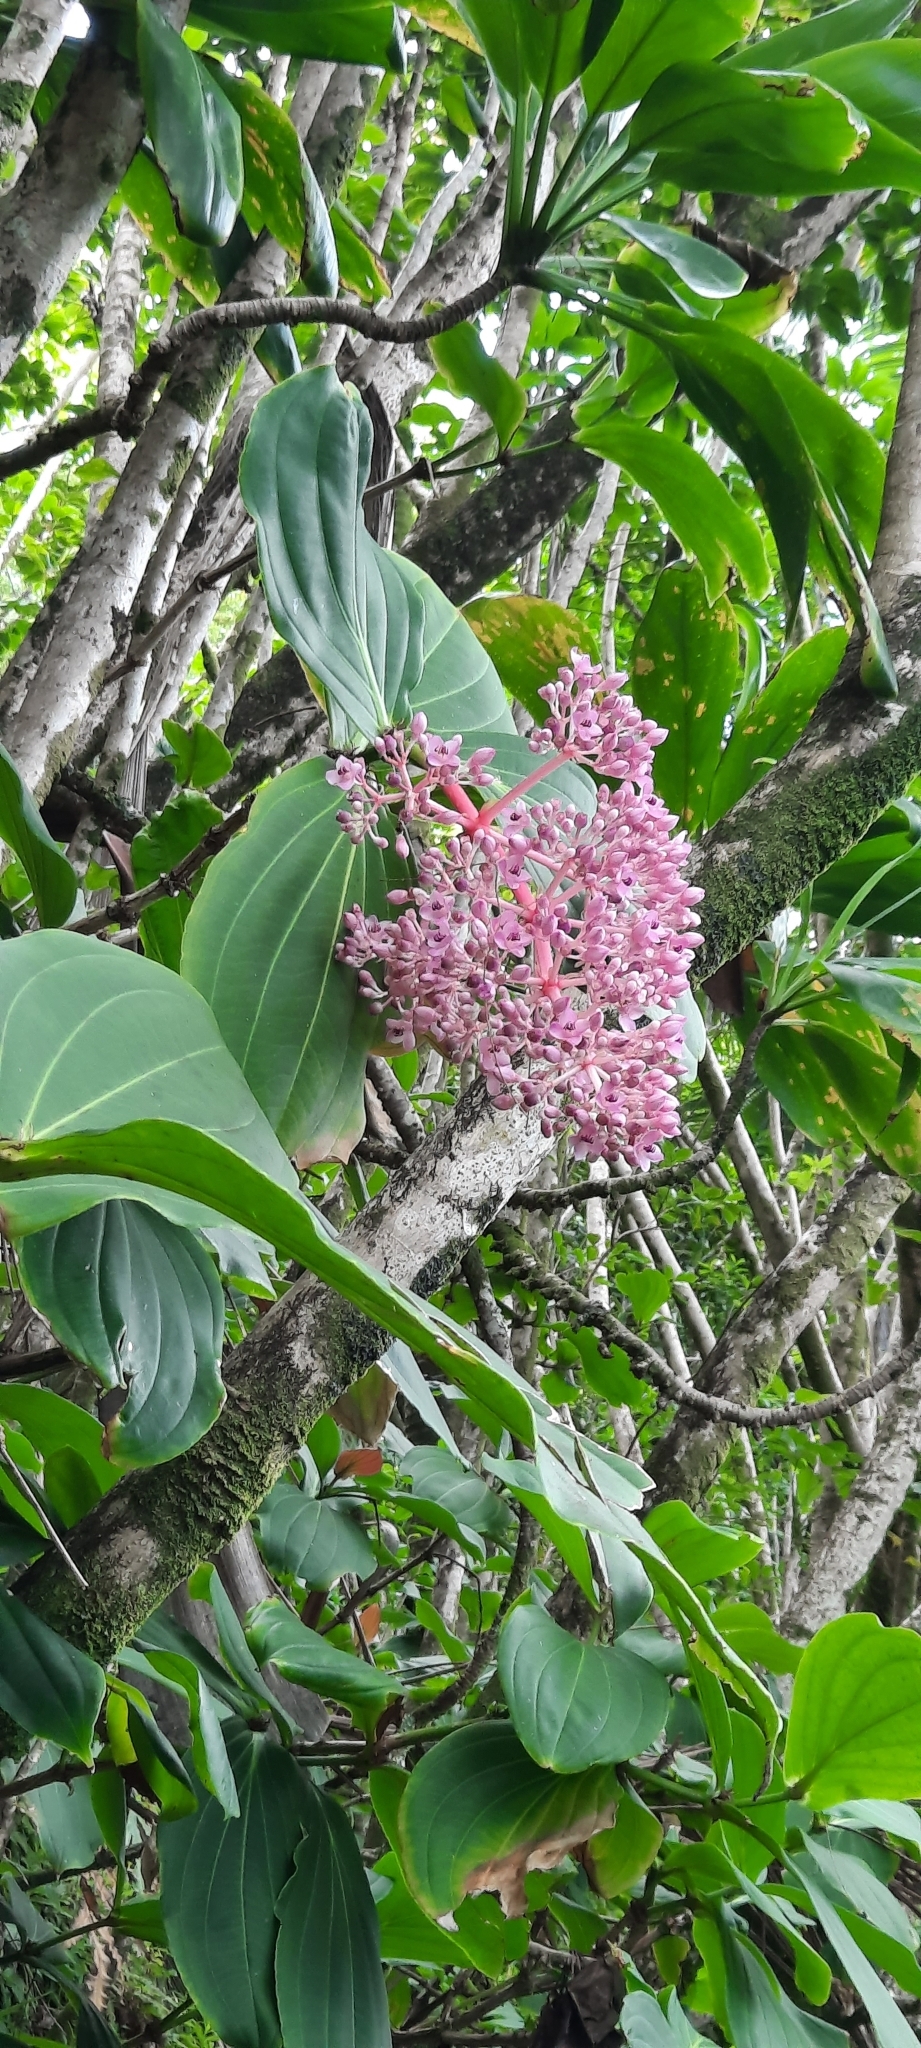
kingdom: Plantae
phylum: Tracheophyta
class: Magnoliopsida
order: Myrtales
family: Melastomataceae
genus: Medinilla
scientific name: Medinilla cumingii
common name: Chandelier tree
